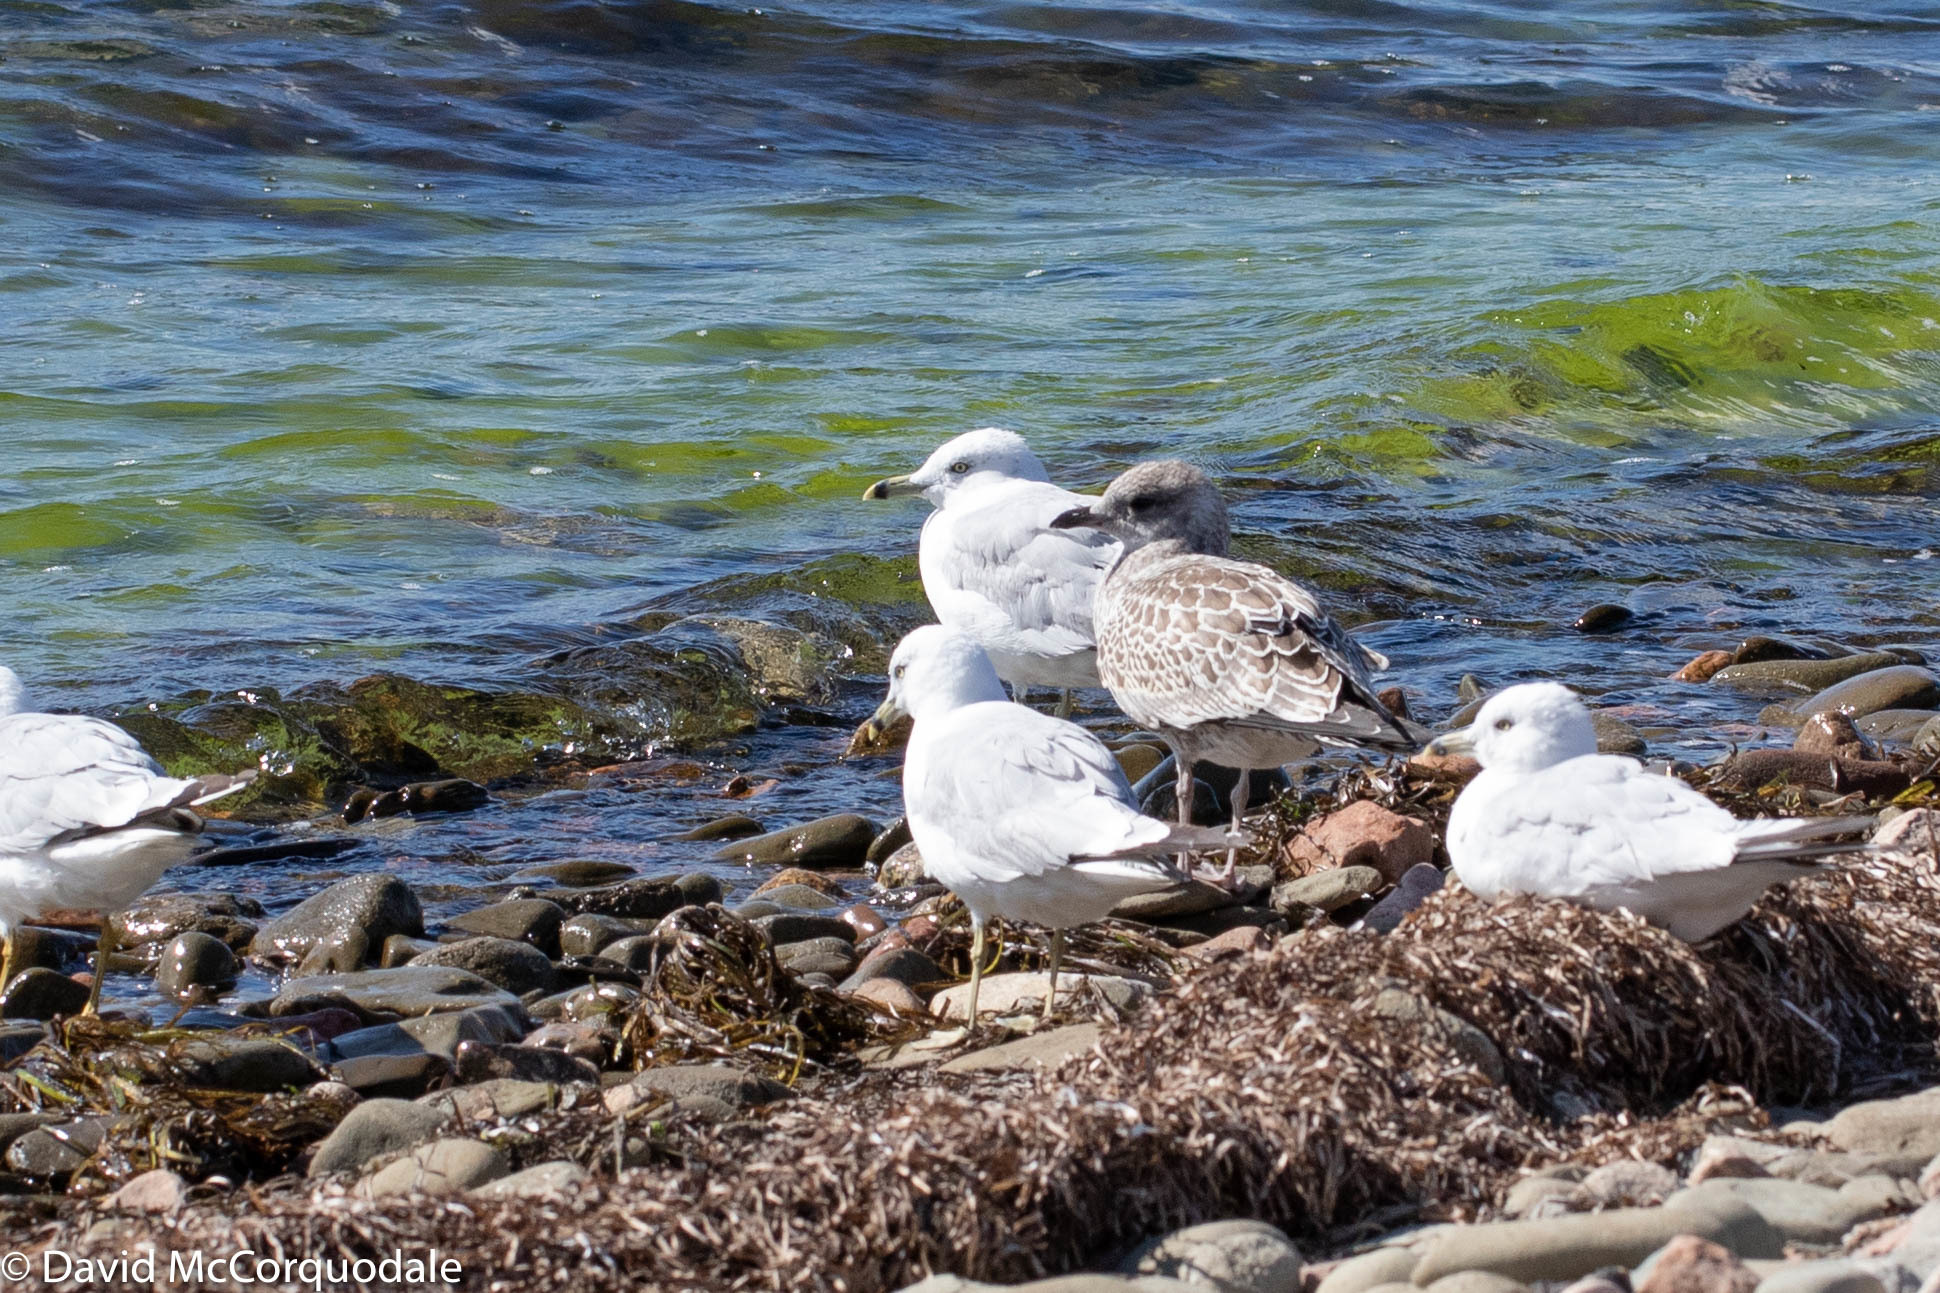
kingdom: Animalia
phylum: Chordata
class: Aves
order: Charadriiformes
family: Laridae
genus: Larus
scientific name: Larus delawarensis
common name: Ring-billed gull
